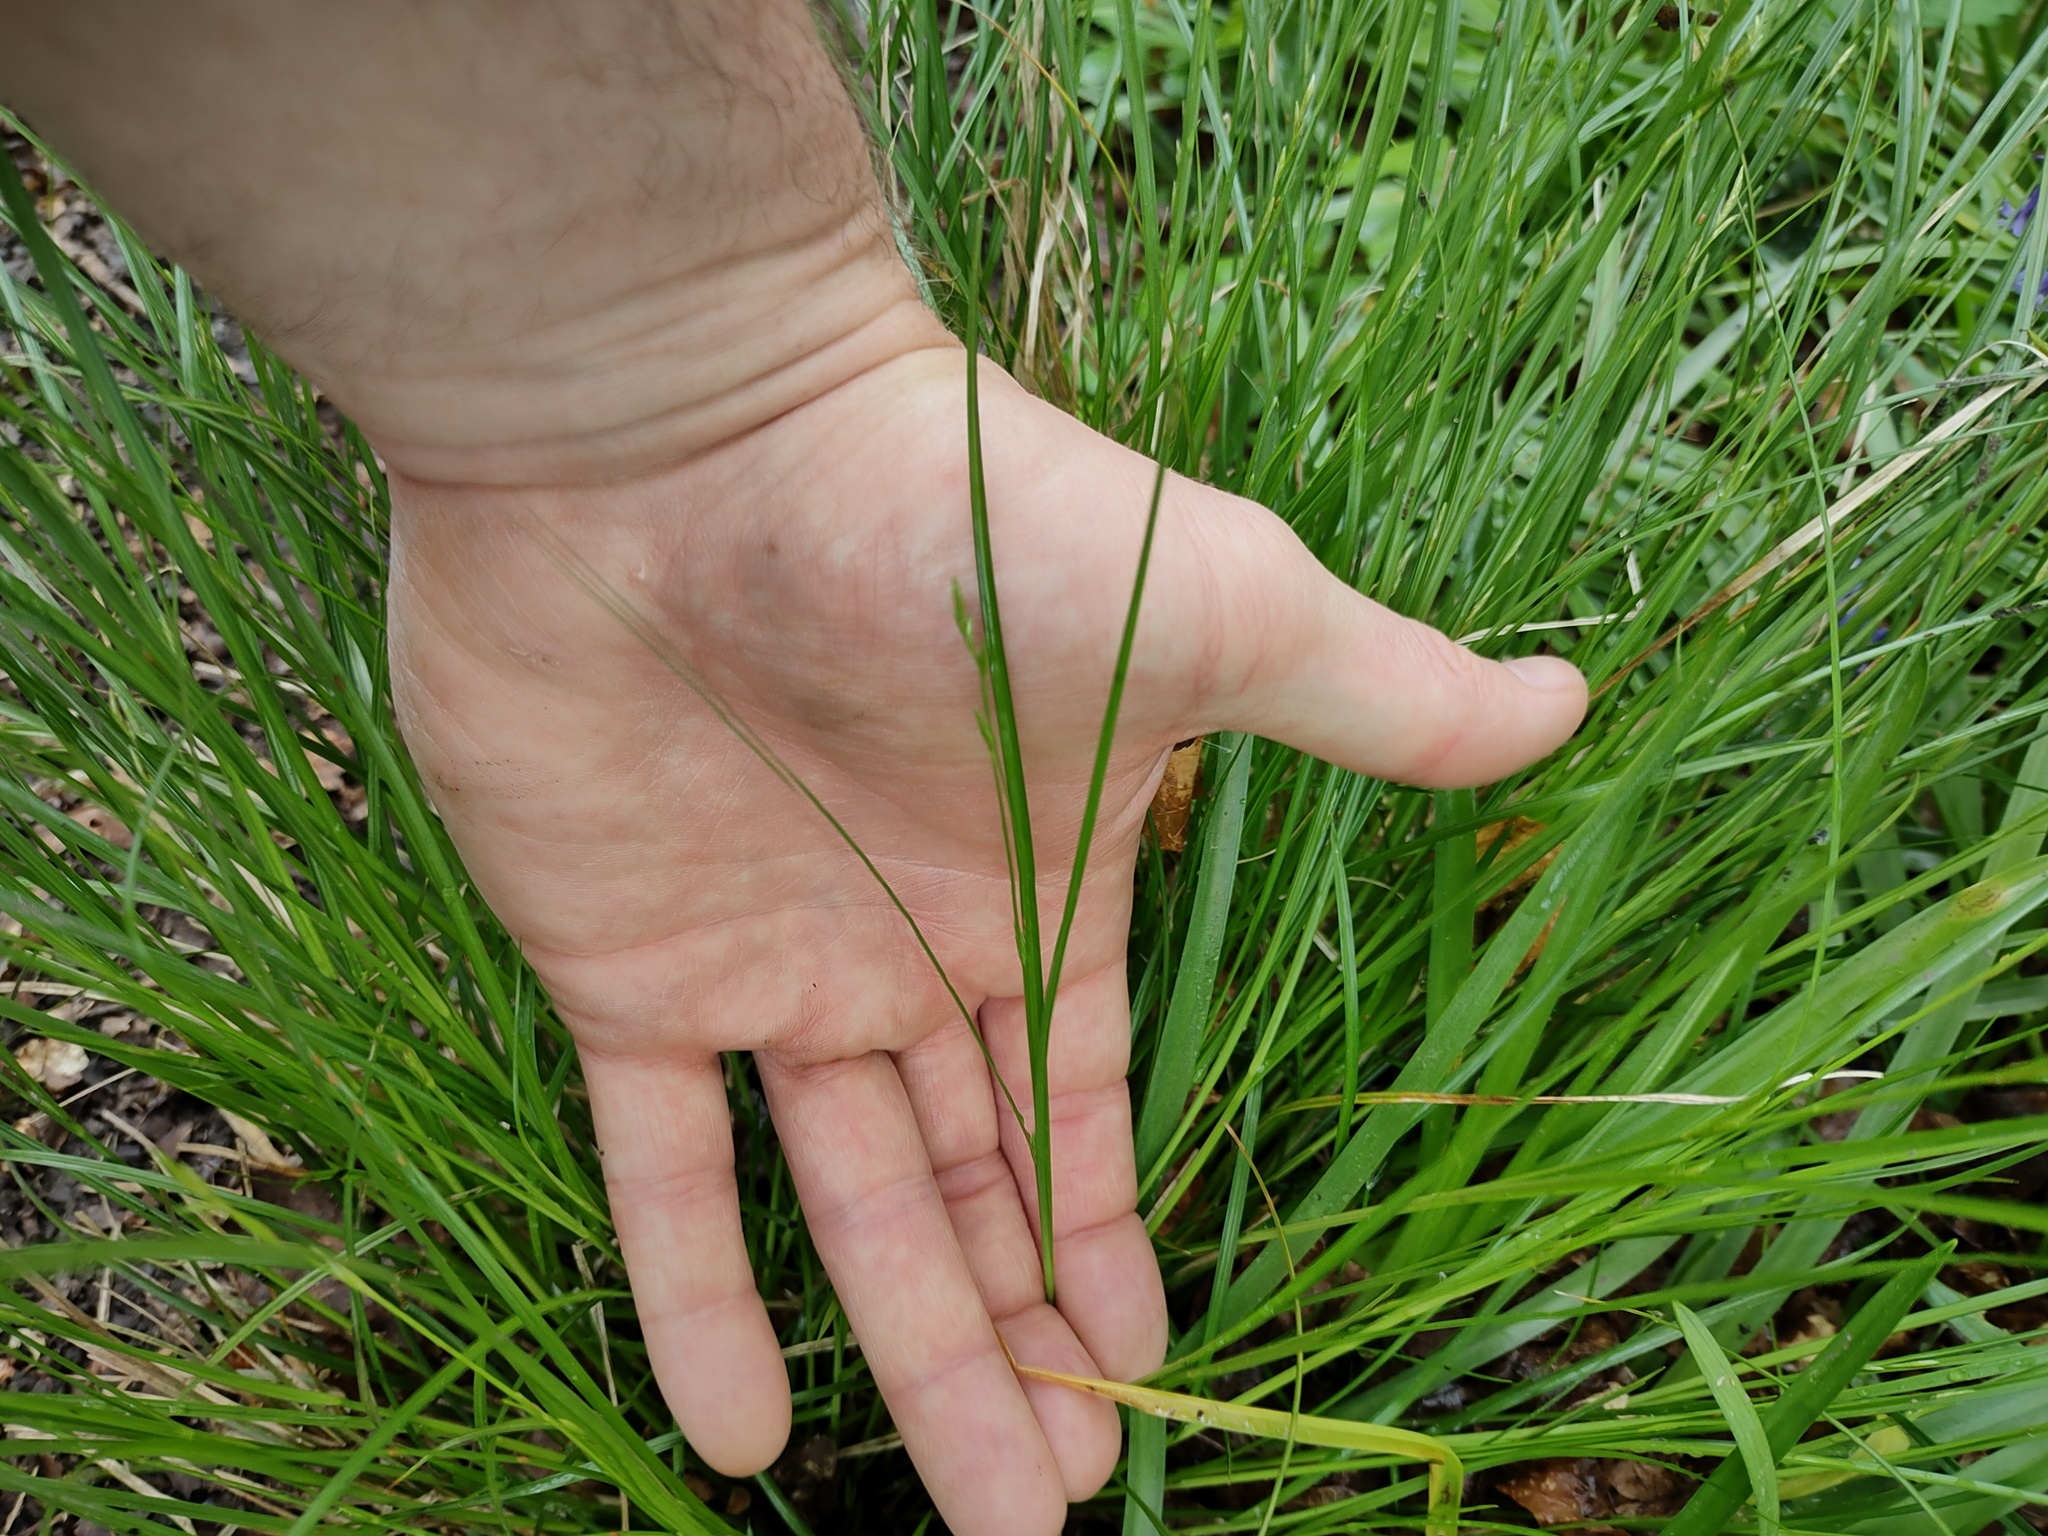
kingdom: Plantae
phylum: Tracheophyta
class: Liliopsida
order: Poales
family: Cyperaceae
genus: Carex
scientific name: Carex remota
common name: Remote sedge
